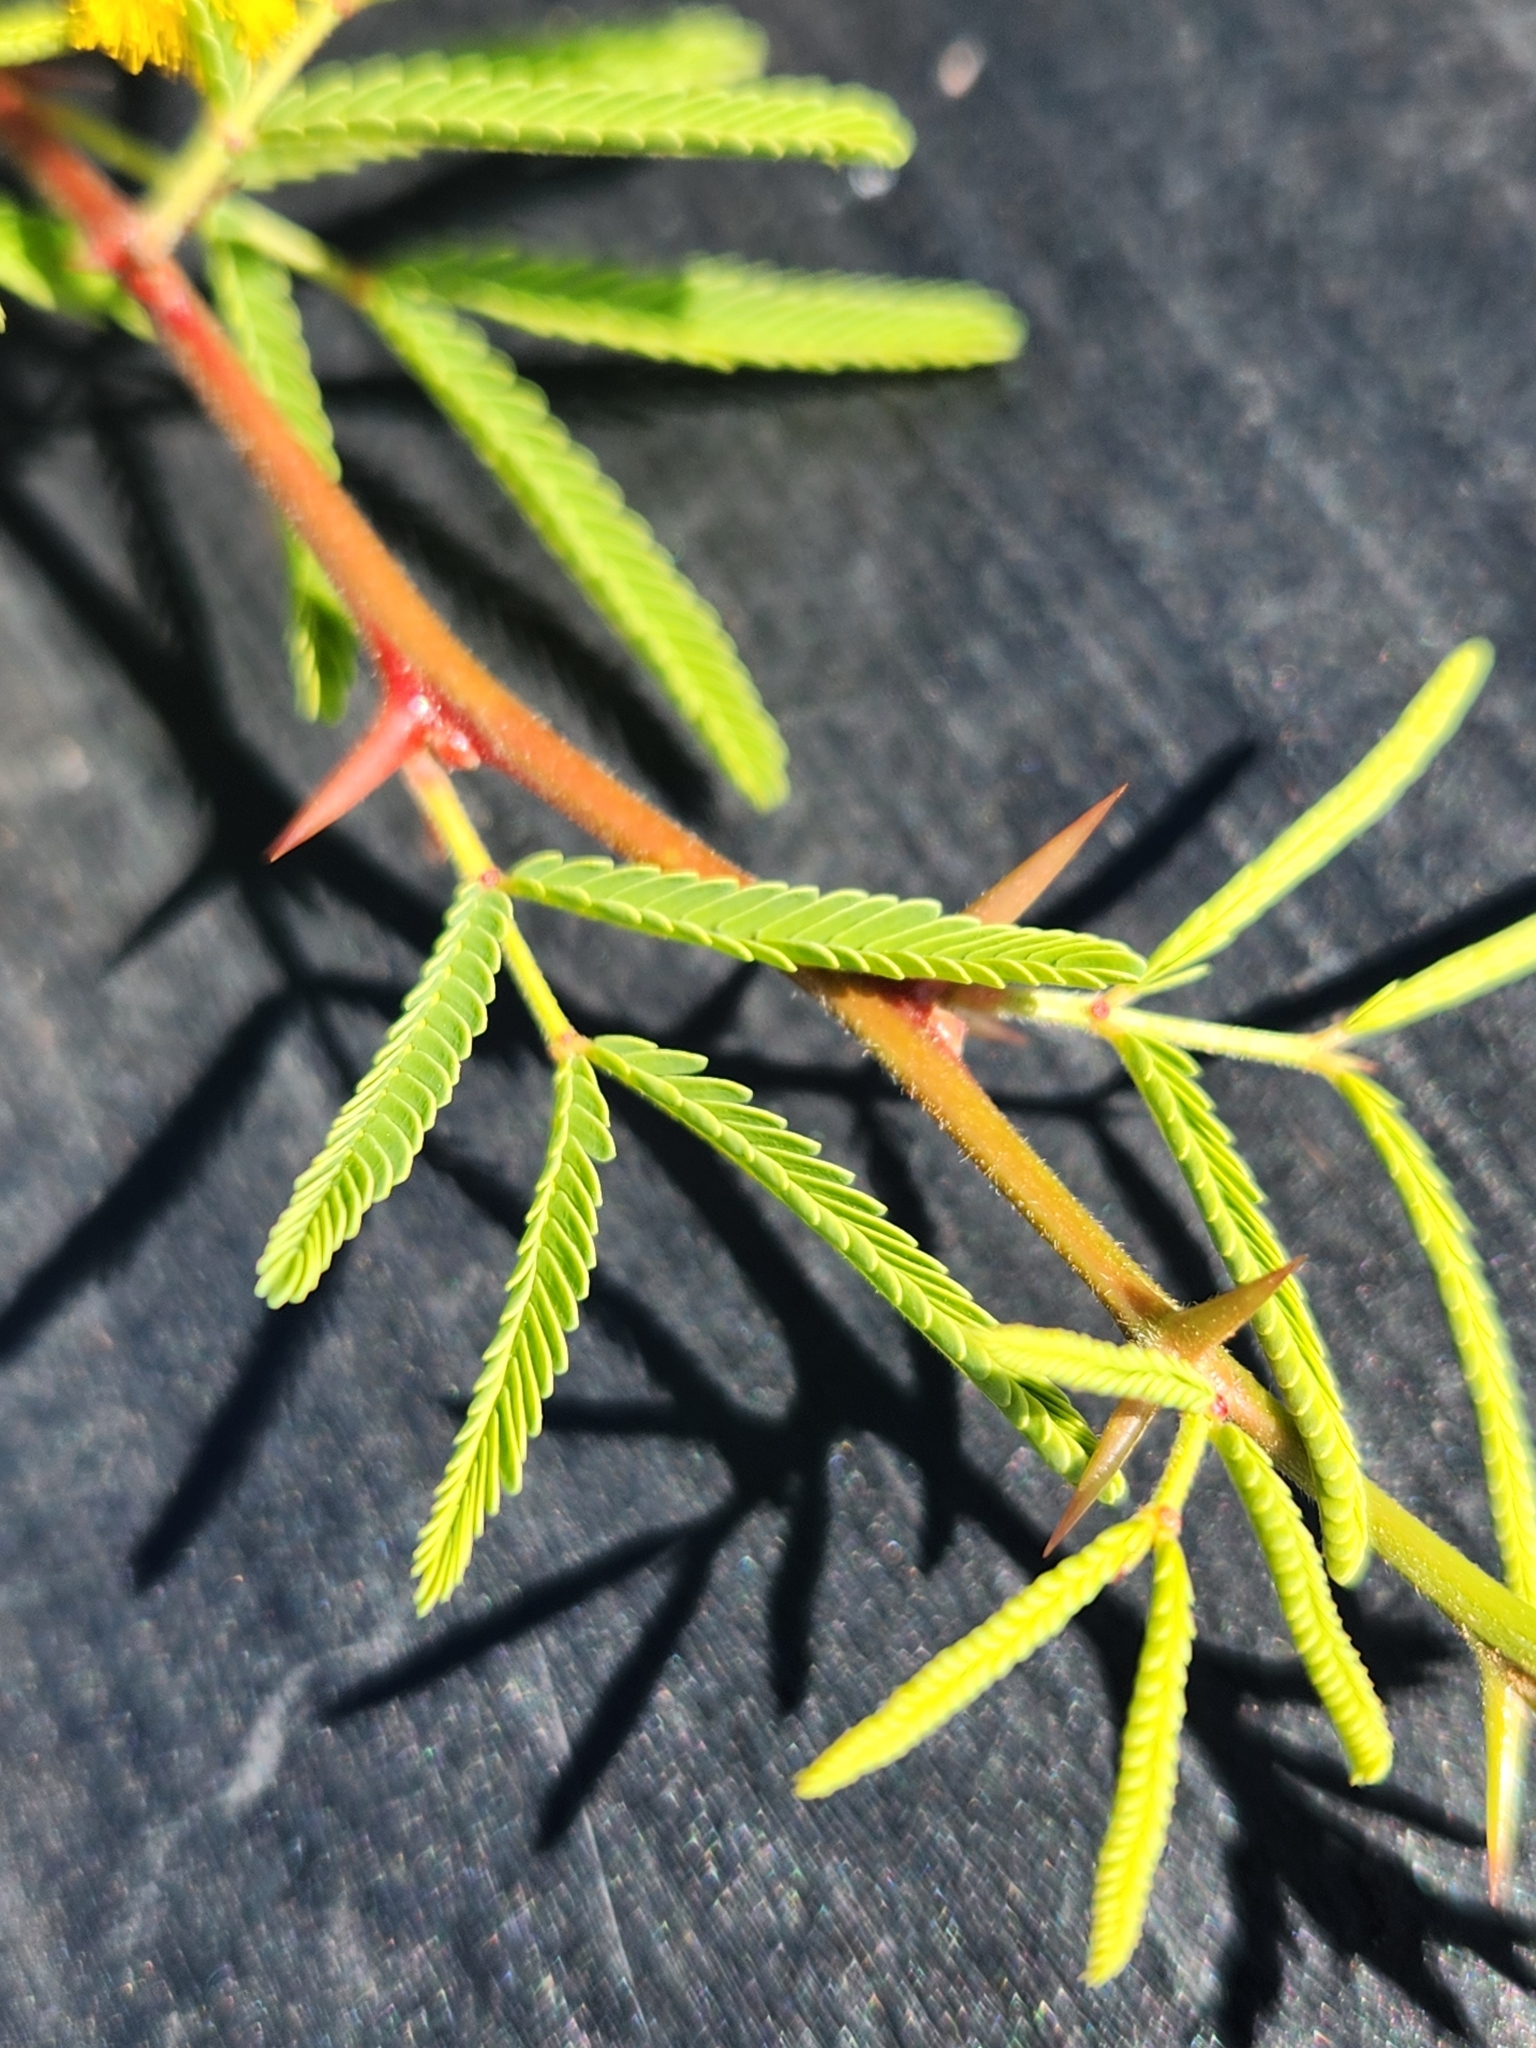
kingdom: Plantae
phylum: Tracheophyta
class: Magnoliopsida
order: Fabales
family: Fabaceae
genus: Vachellia
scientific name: Vachellia farnesiana
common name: Sweet acacia
